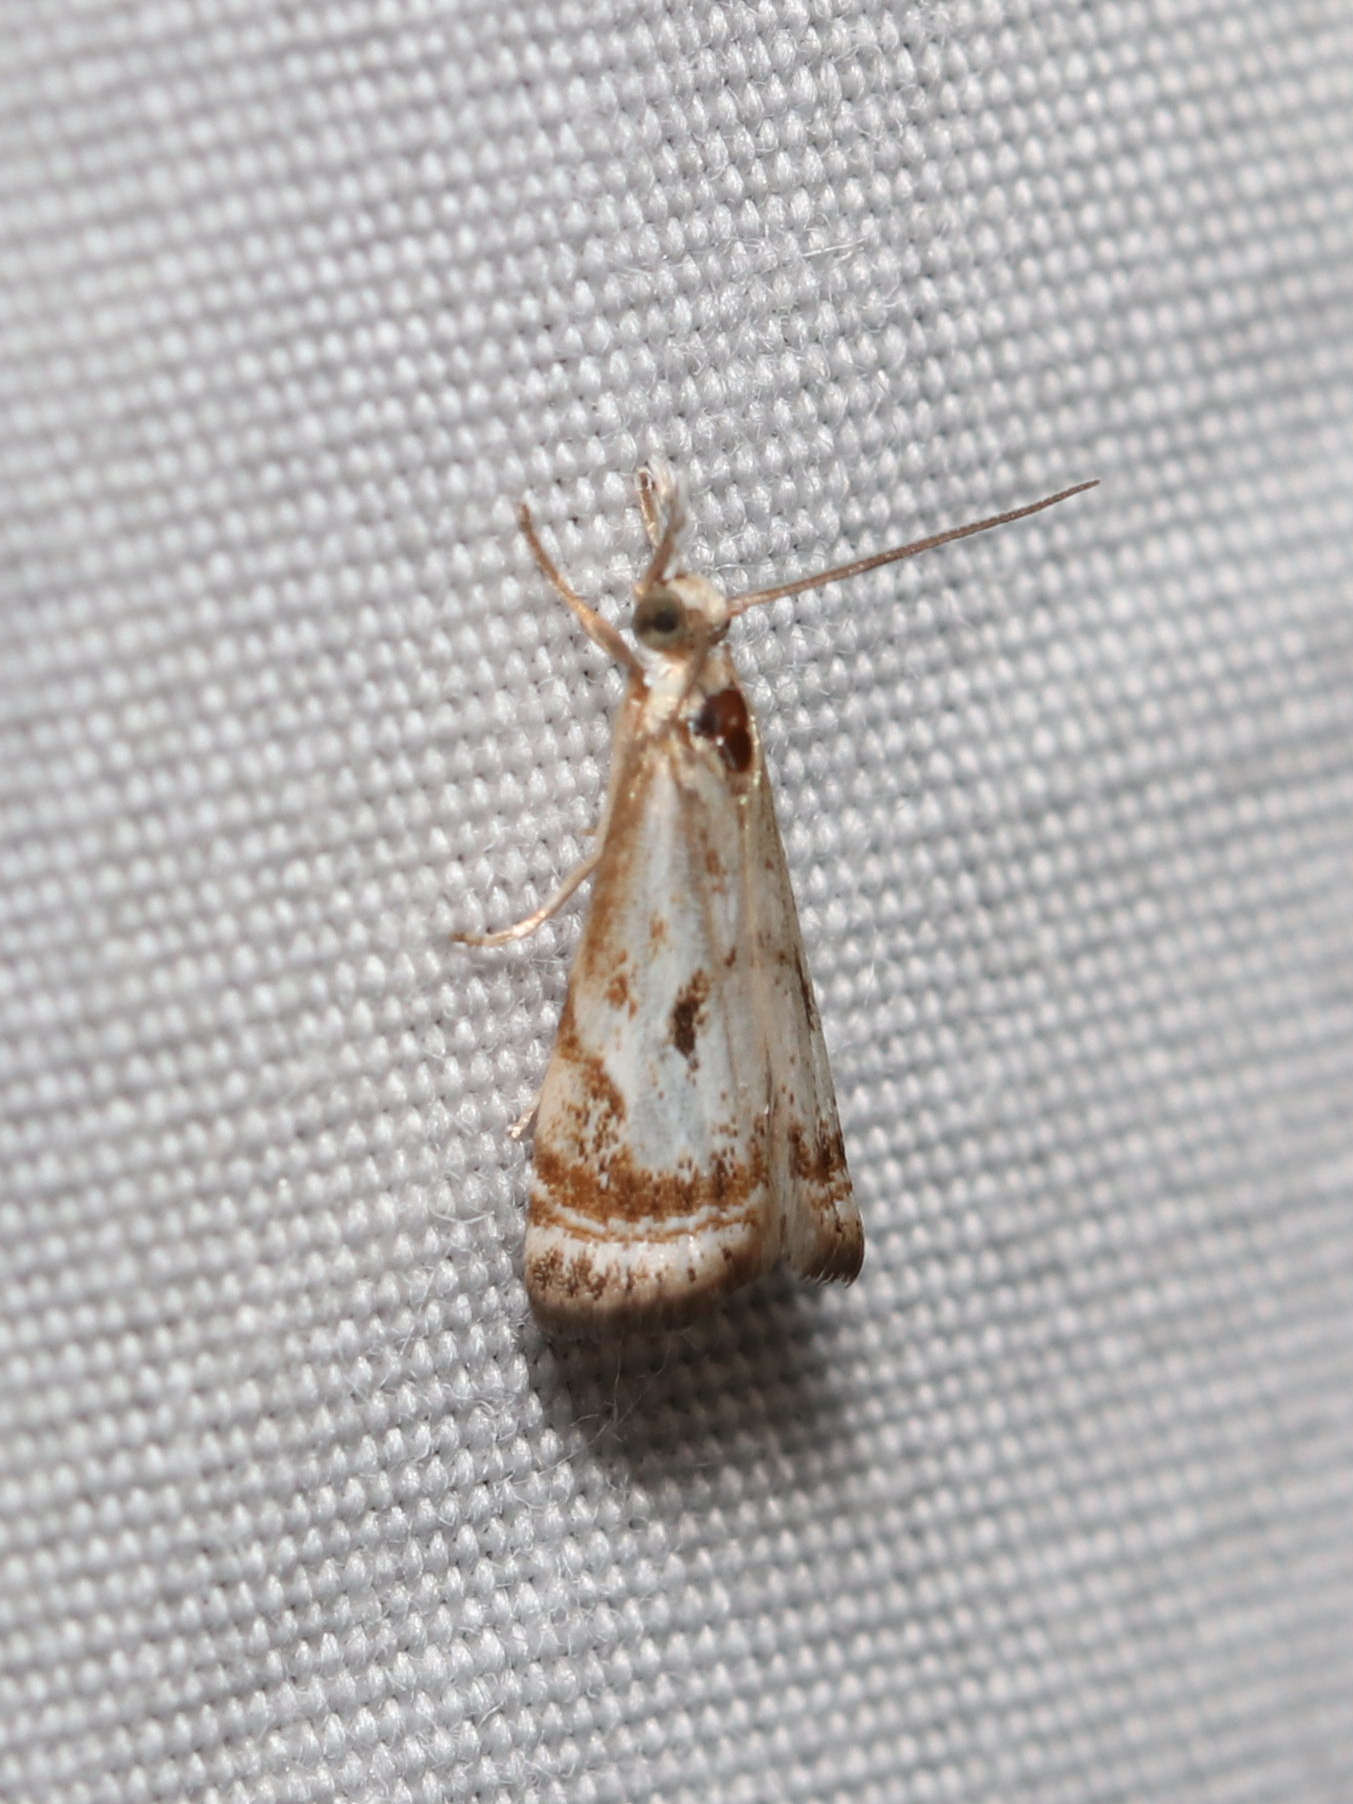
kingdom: Animalia
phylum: Arthropoda
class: Insecta
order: Lepidoptera
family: Crambidae
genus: Microcrambus
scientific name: Microcrambus elegans
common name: Elegant grass-veneer
